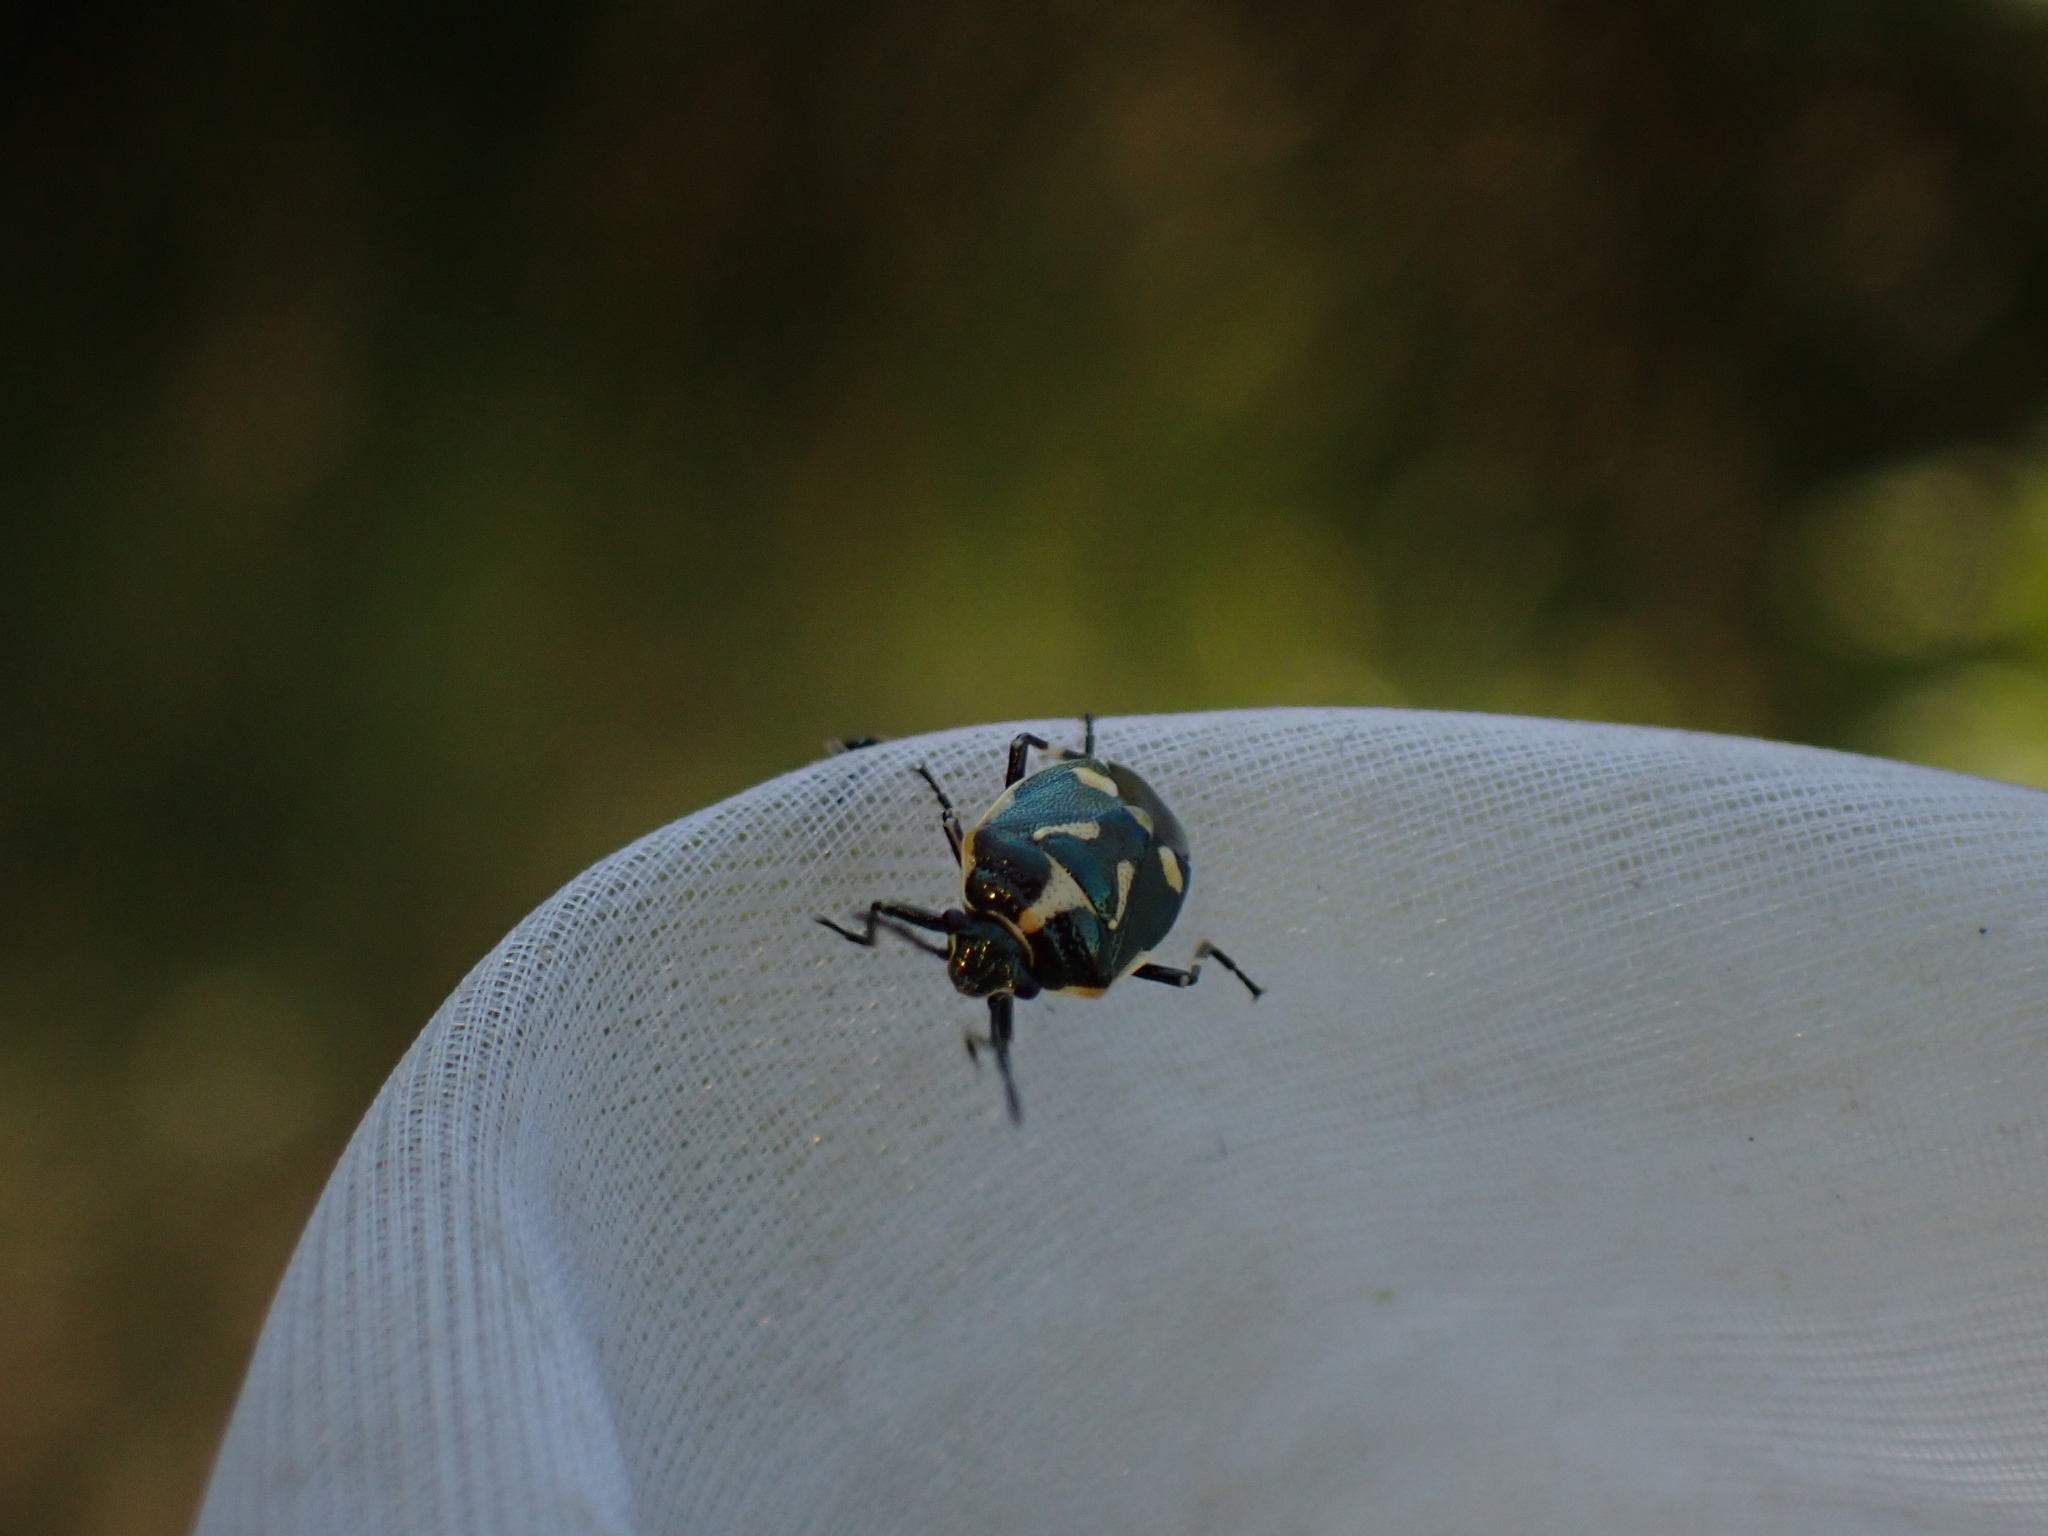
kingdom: Animalia
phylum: Arthropoda
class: Insecta
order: Hemiptera
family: Pentatomidae
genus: Eurydema
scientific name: Eurydema oleracea
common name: Cabbage bug
